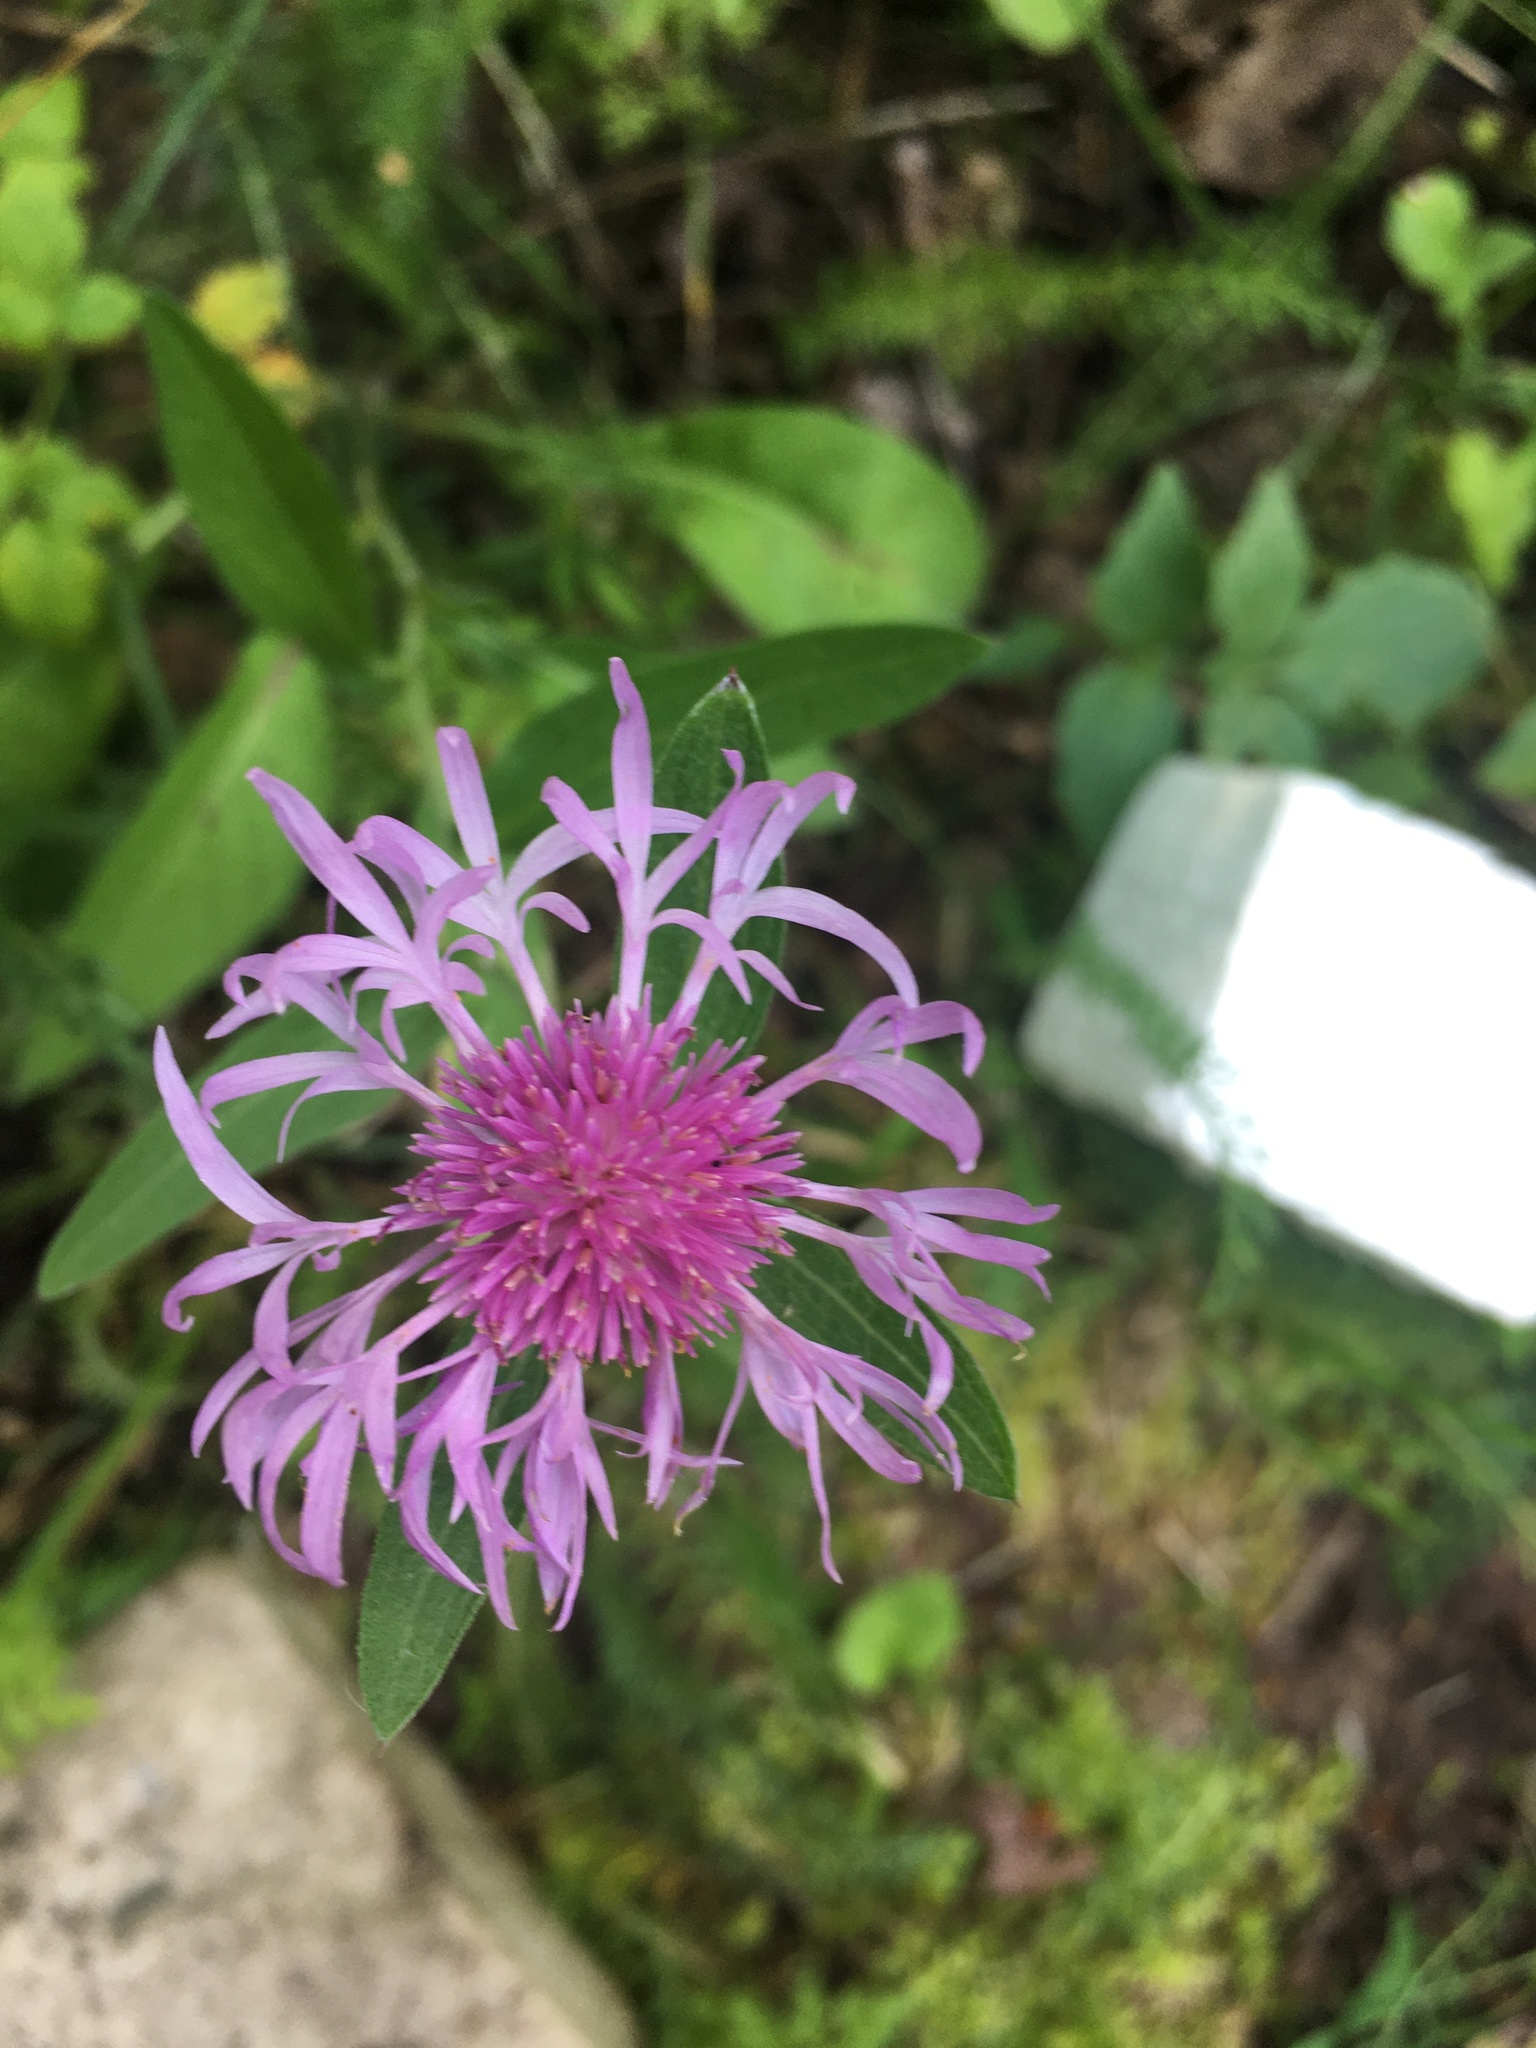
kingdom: Plantae
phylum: Tracheophyta
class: Magnoliopsida
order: Asterales
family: Asteraceae
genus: Centaurea
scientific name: Centaurea jacea
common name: Brown knapweed
